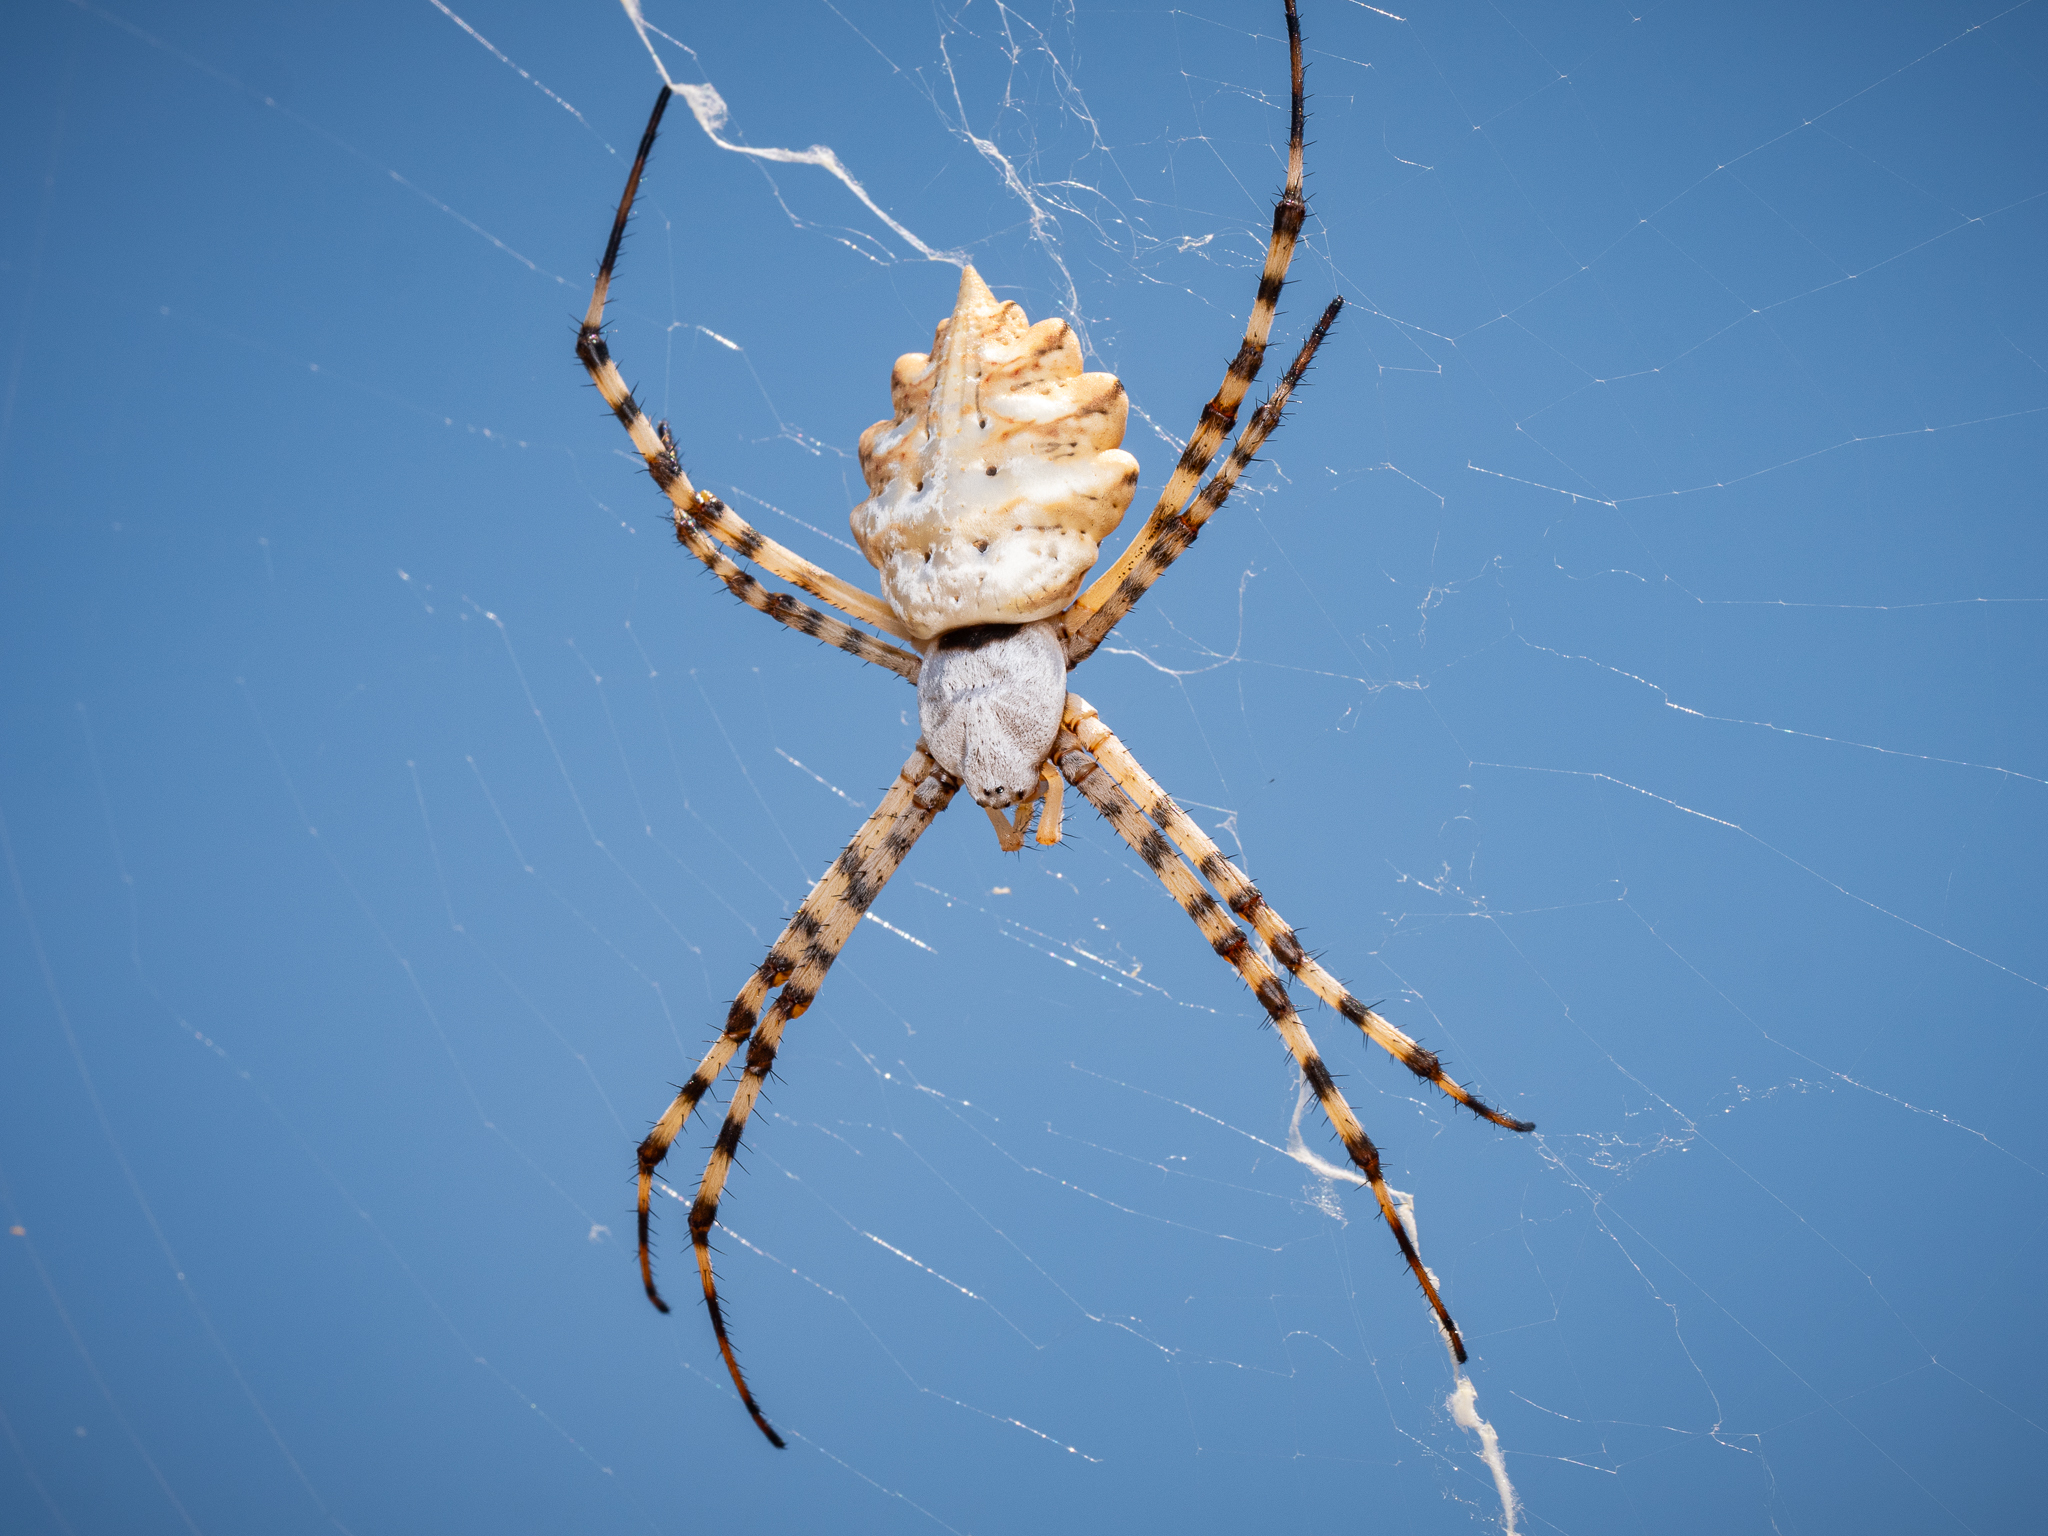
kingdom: Animalia
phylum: Arthropoda
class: Arachnida
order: Araneae
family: Araneidae
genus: Argiope
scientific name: Argiope lobata
